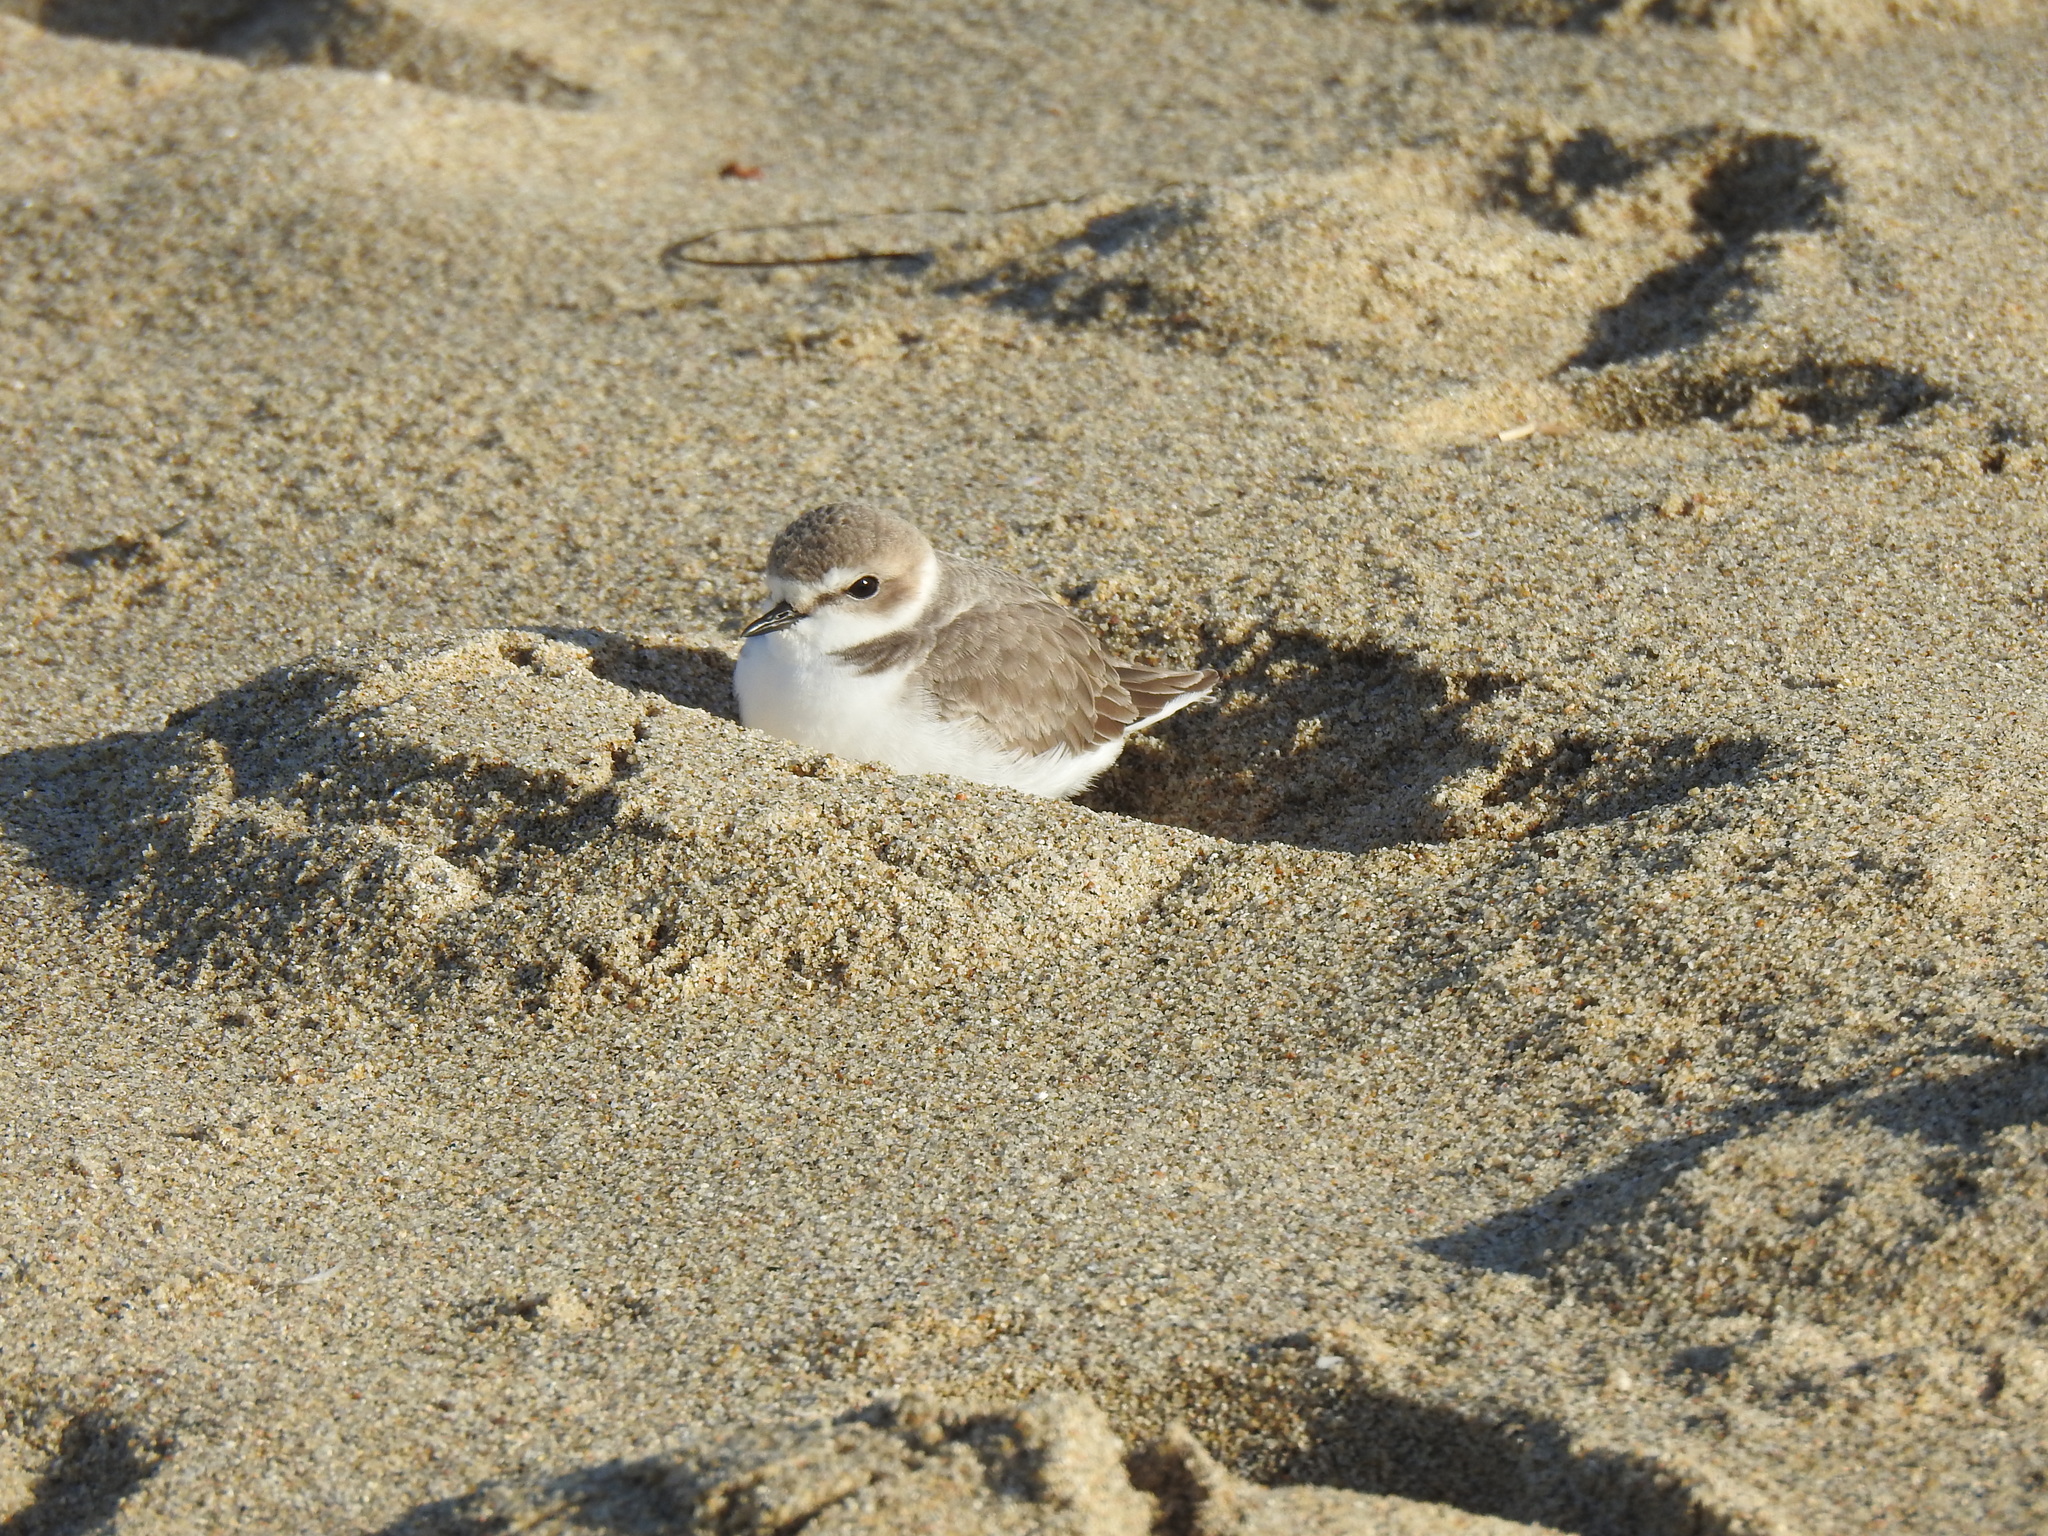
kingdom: Animalia
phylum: Chordata
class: Aves
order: Charadriiformes
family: Charadriidae
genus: Anarhynchus
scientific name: Anarhynchus
